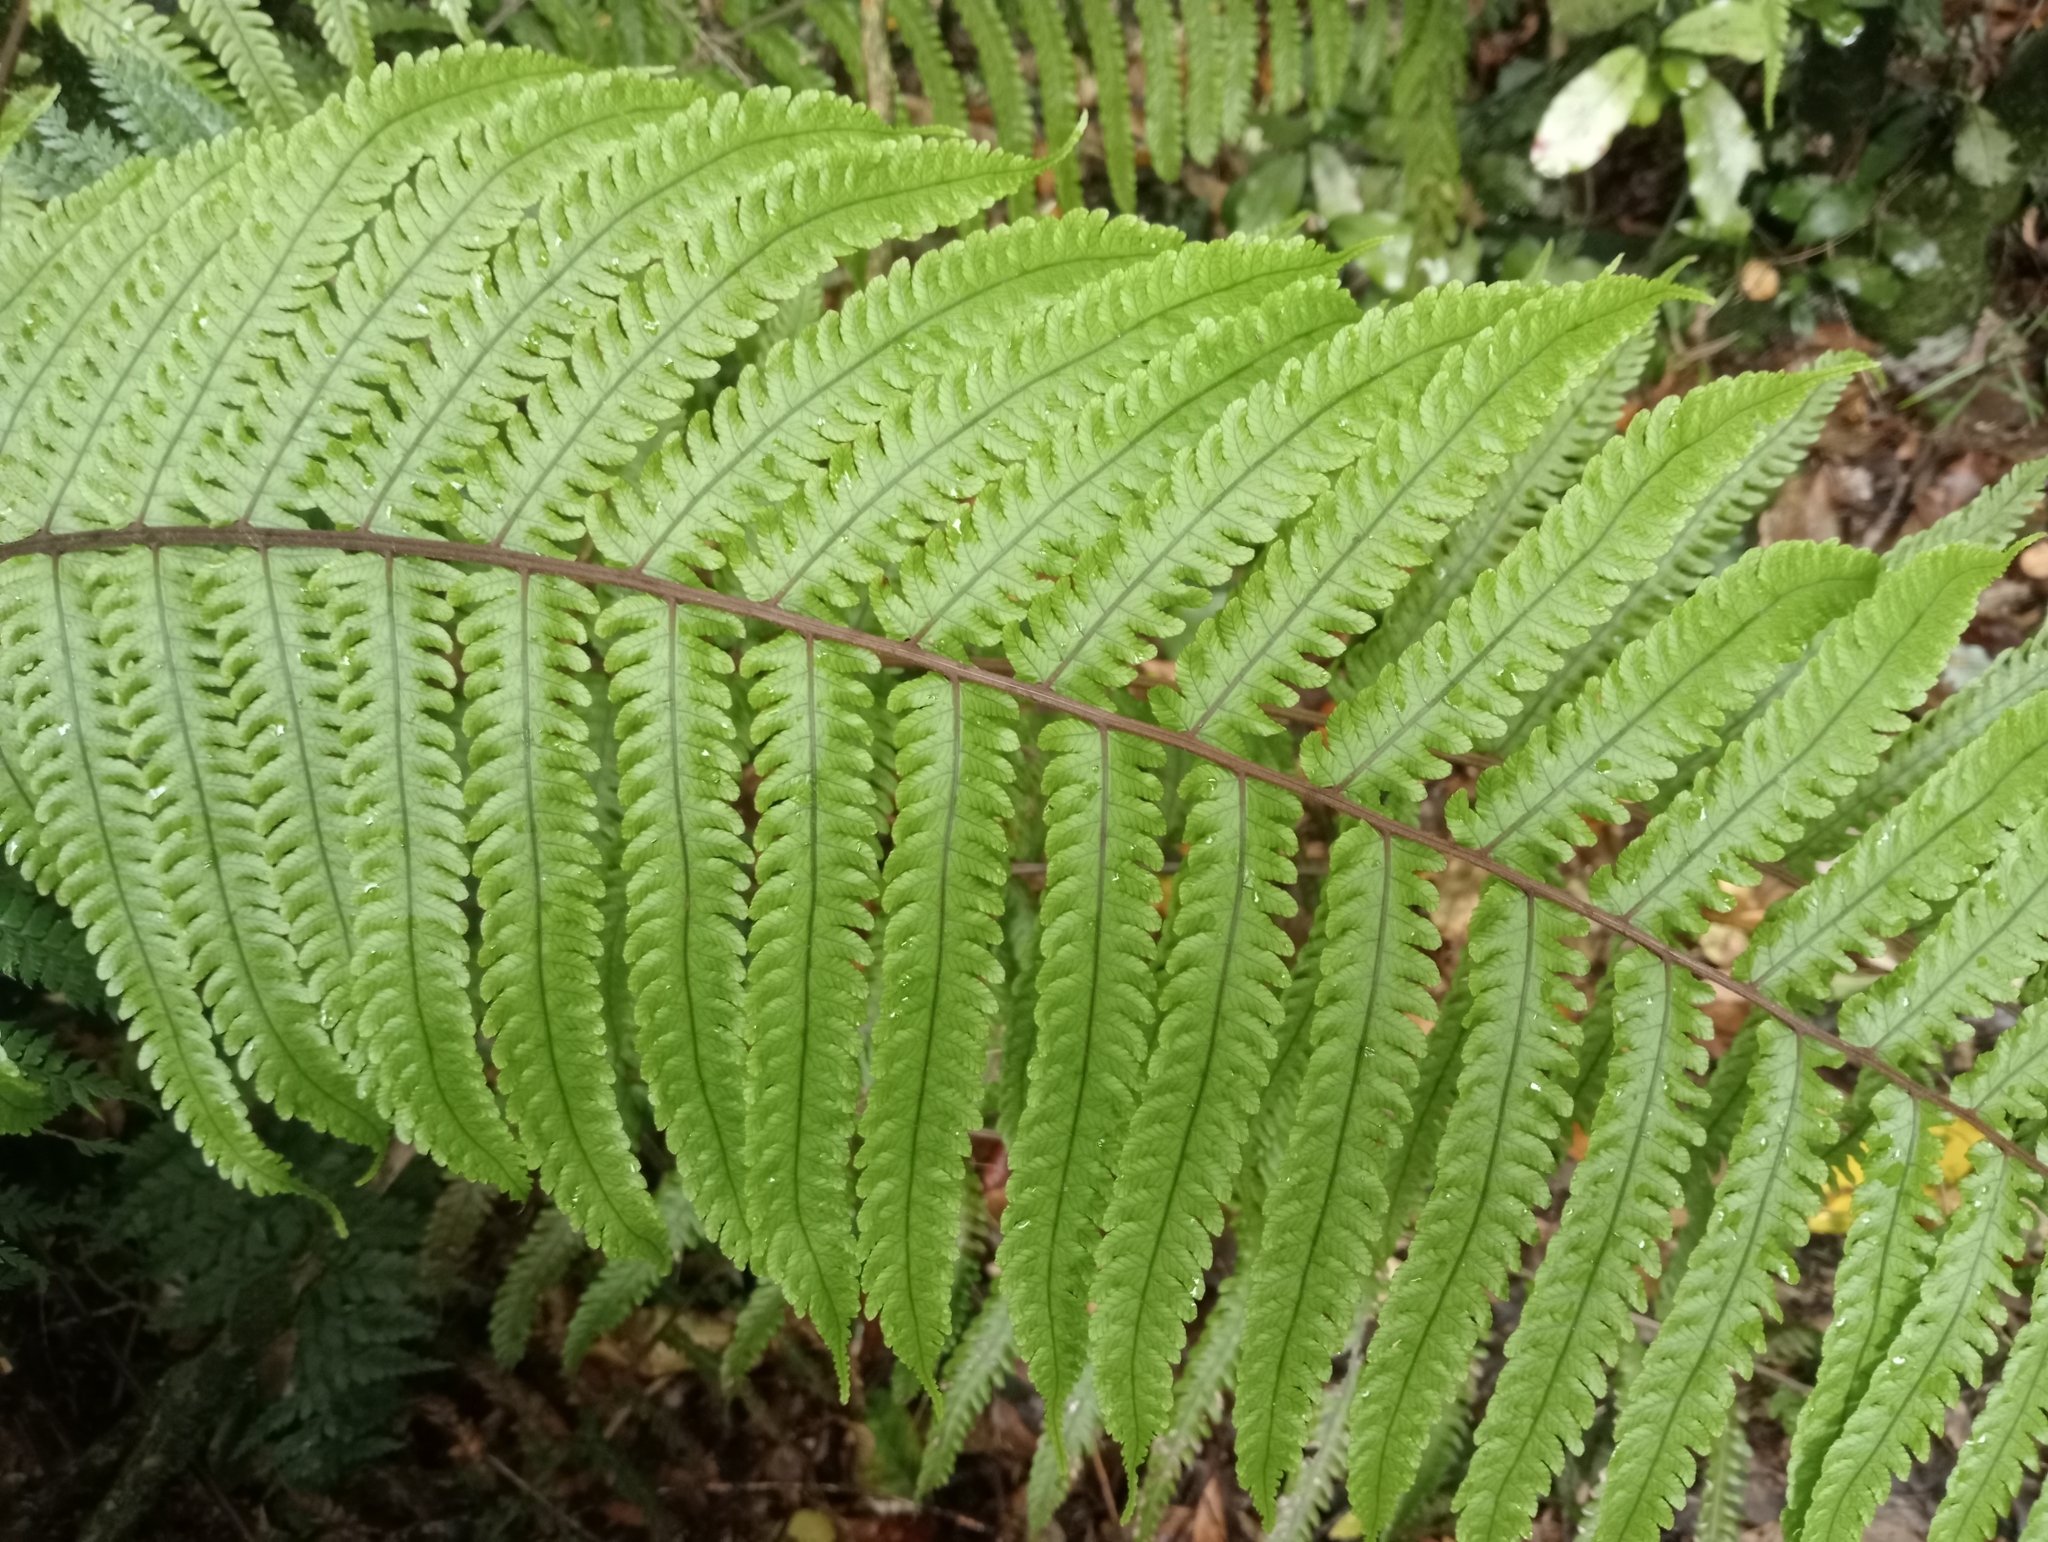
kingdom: Plantae
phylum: Tracheophyta
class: Polypodiopsida
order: Polypodiales
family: Thelypteridaceae
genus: Pakau
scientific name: Pakau pennigera
